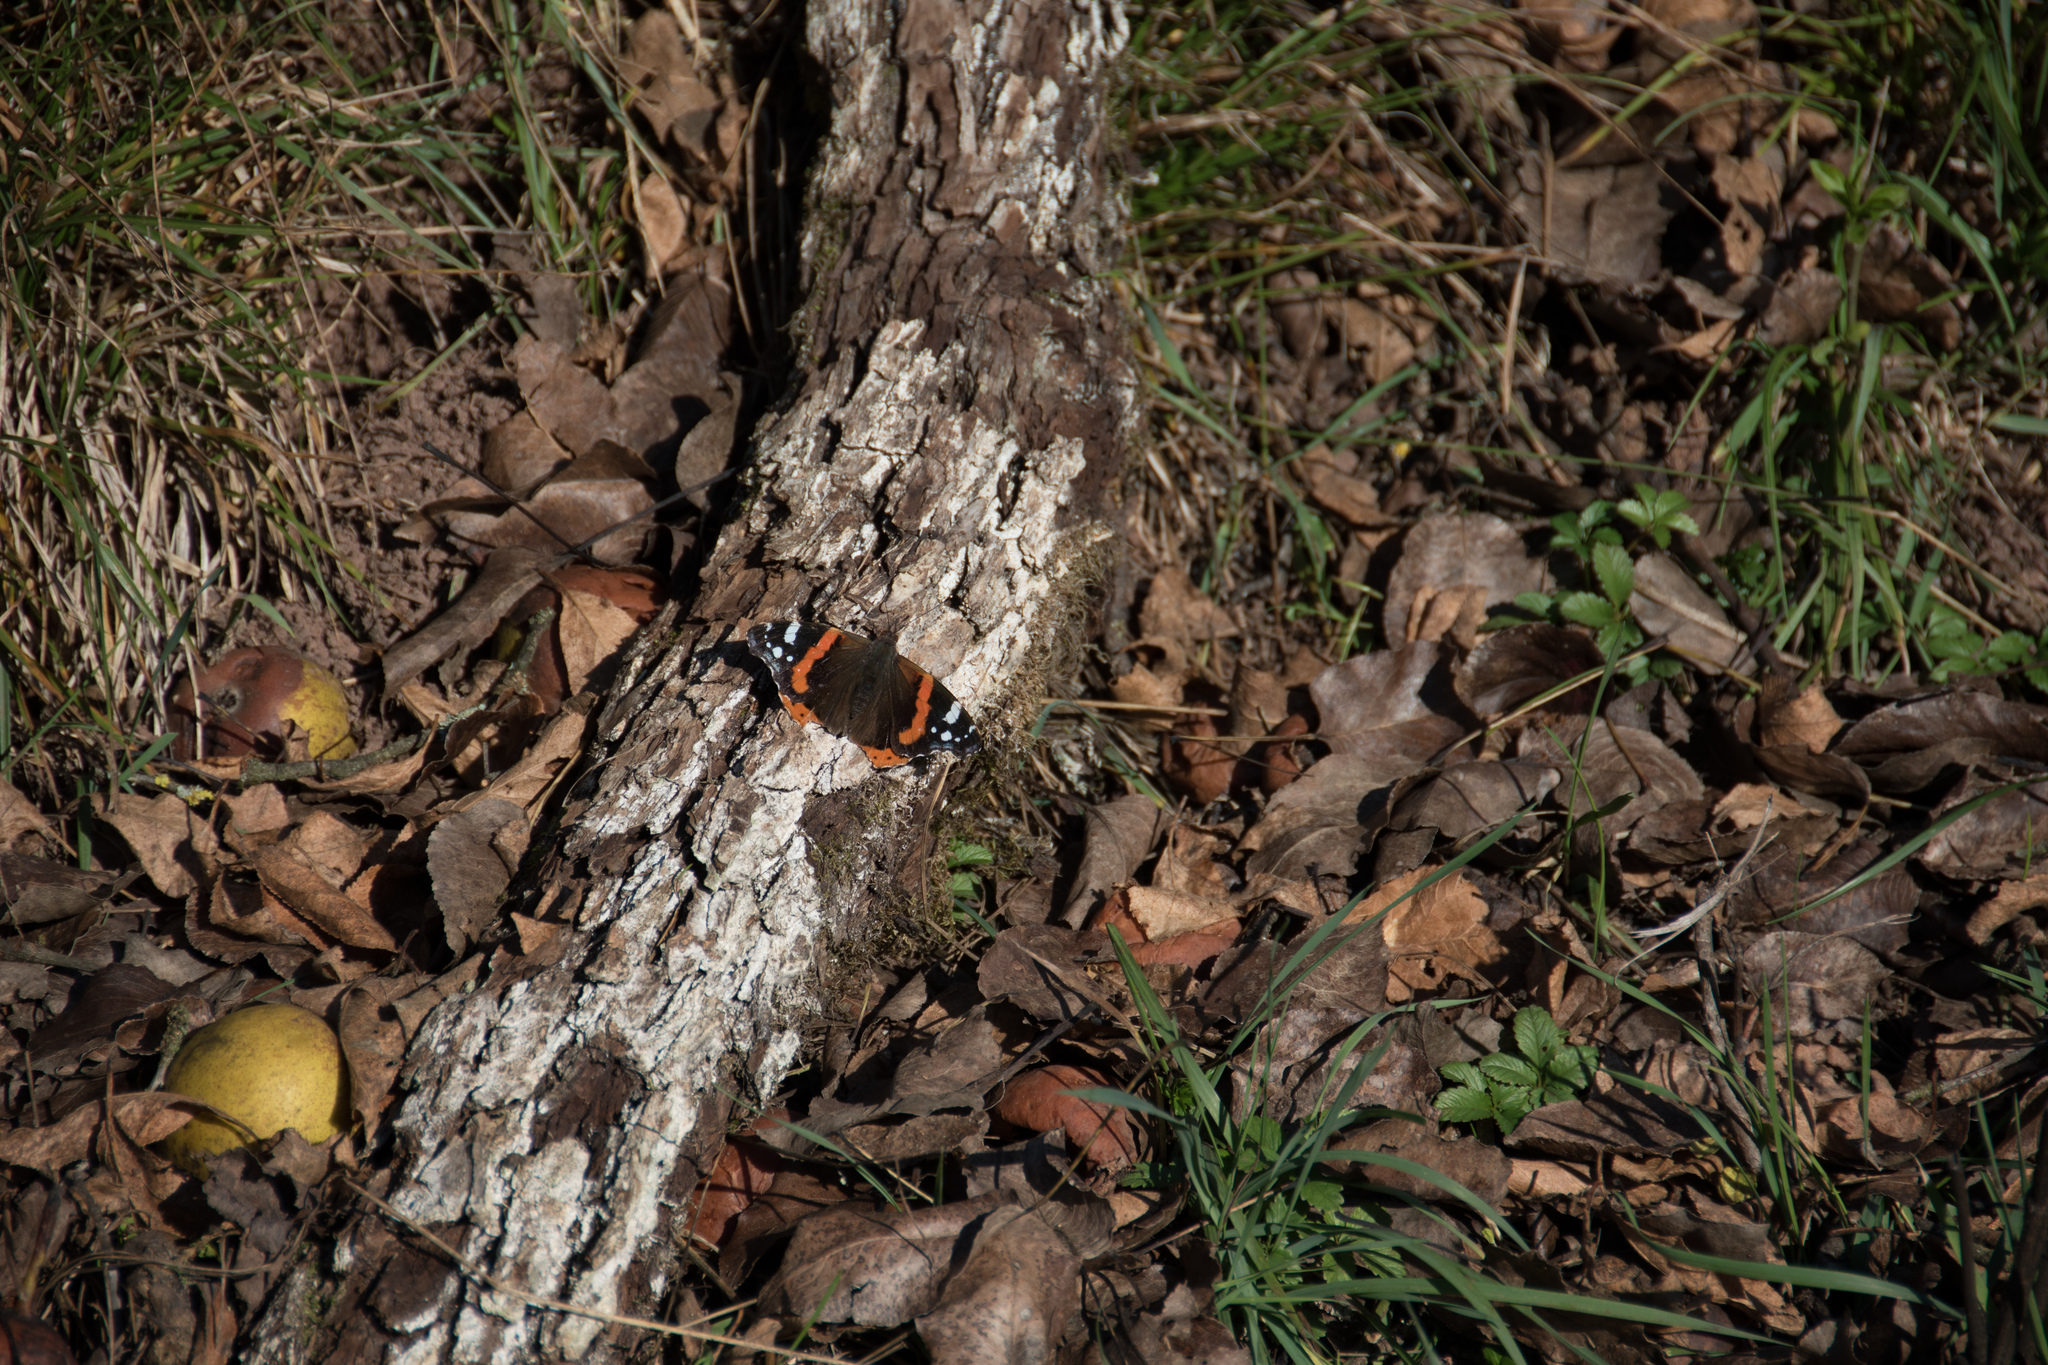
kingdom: Animalia
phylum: Arthropoda
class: Insecta
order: Lepidoptera
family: Nymphalidae
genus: Vanessa
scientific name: Vanessa atalanta
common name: Red admiral
